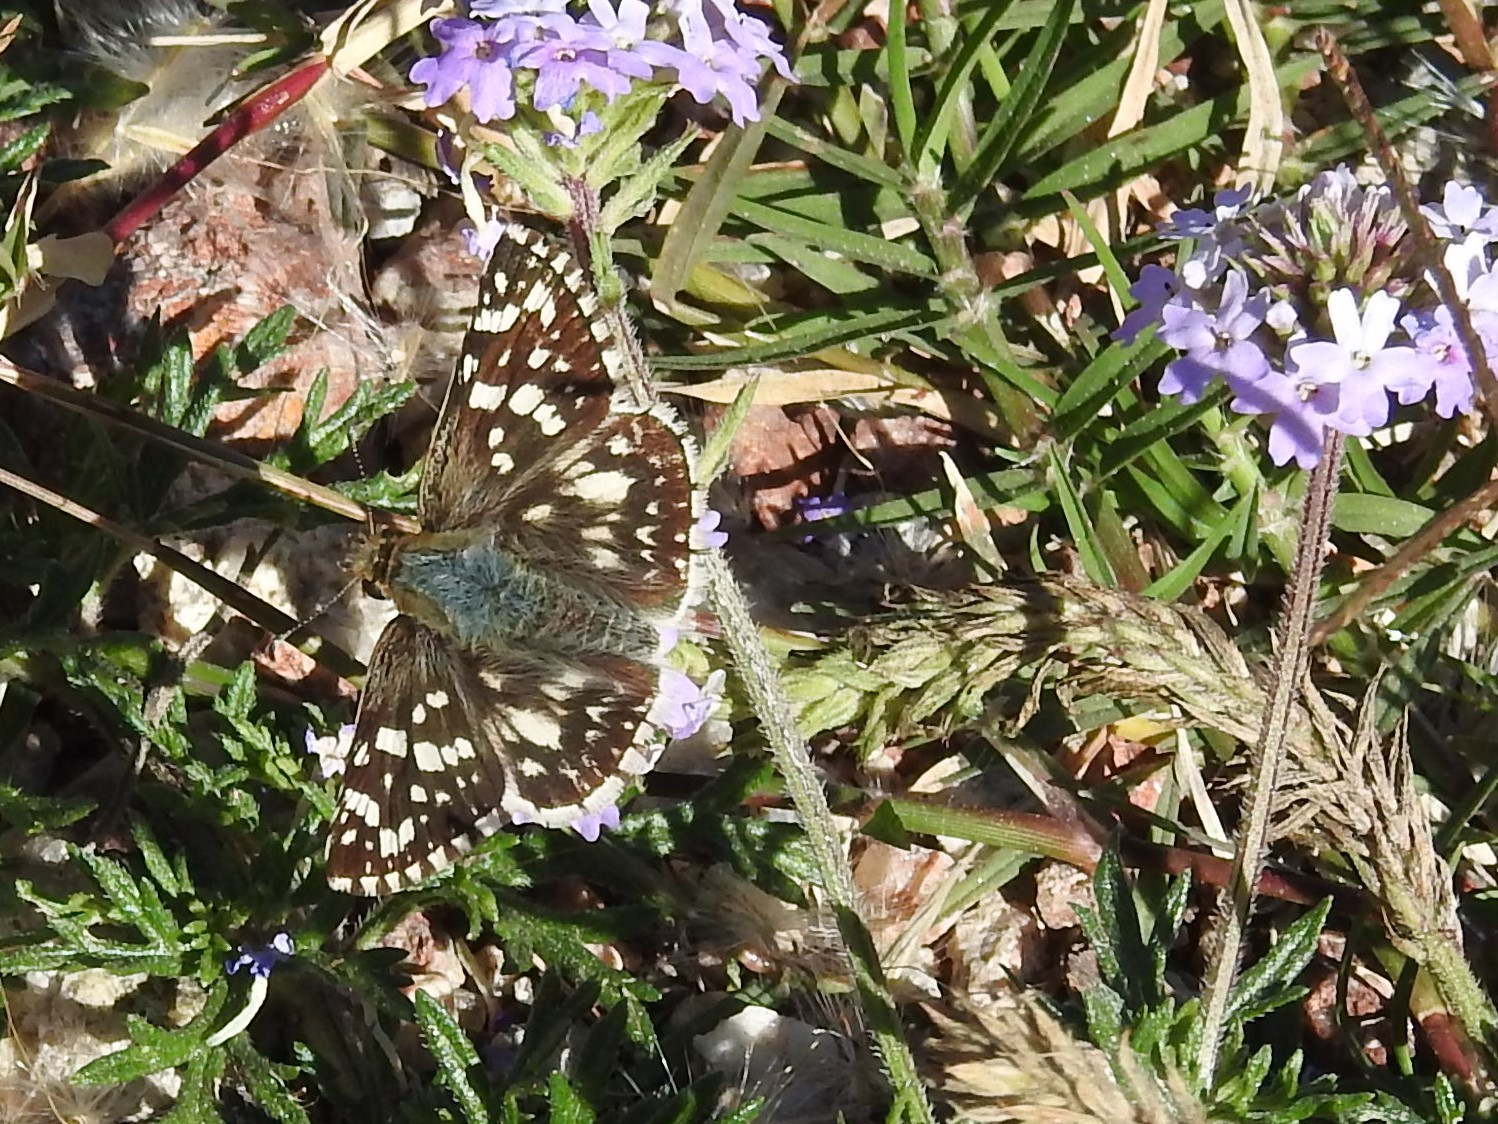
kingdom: Animalia
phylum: Arthropoda
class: Insecta
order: Lepidoptera
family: Hesperiidae
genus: Heliopetes
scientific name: Heliopetes americanus
